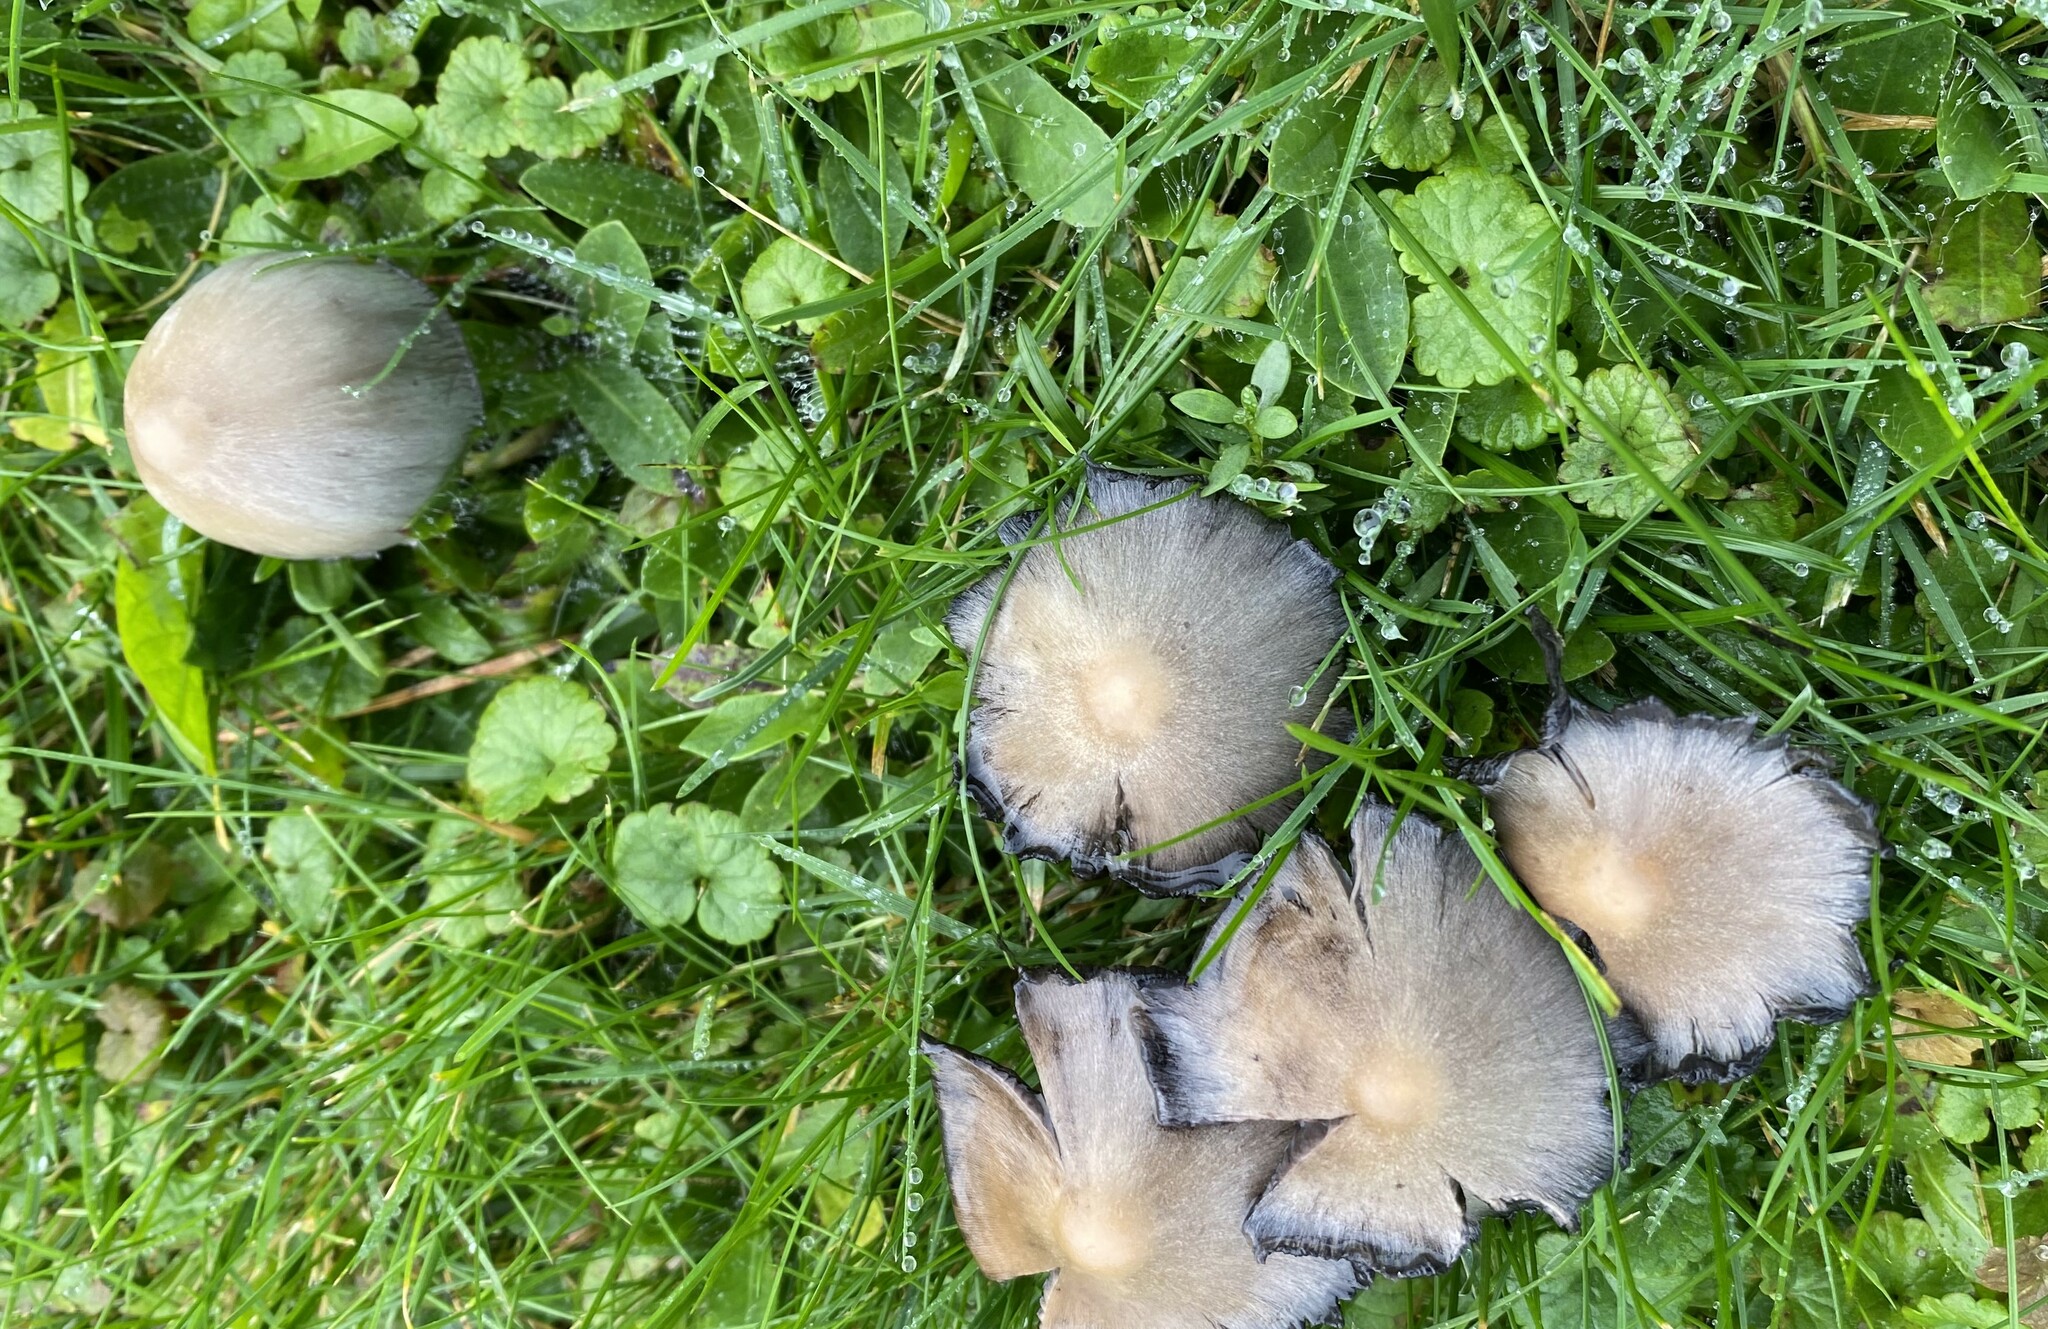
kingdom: Fungi
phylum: Basidiomycota
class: Agaricomycetes
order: Agaricales
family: Psathyrellaceae
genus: Coprinopsis
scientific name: Coprinopsis atramentaria
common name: Common ink-cap
